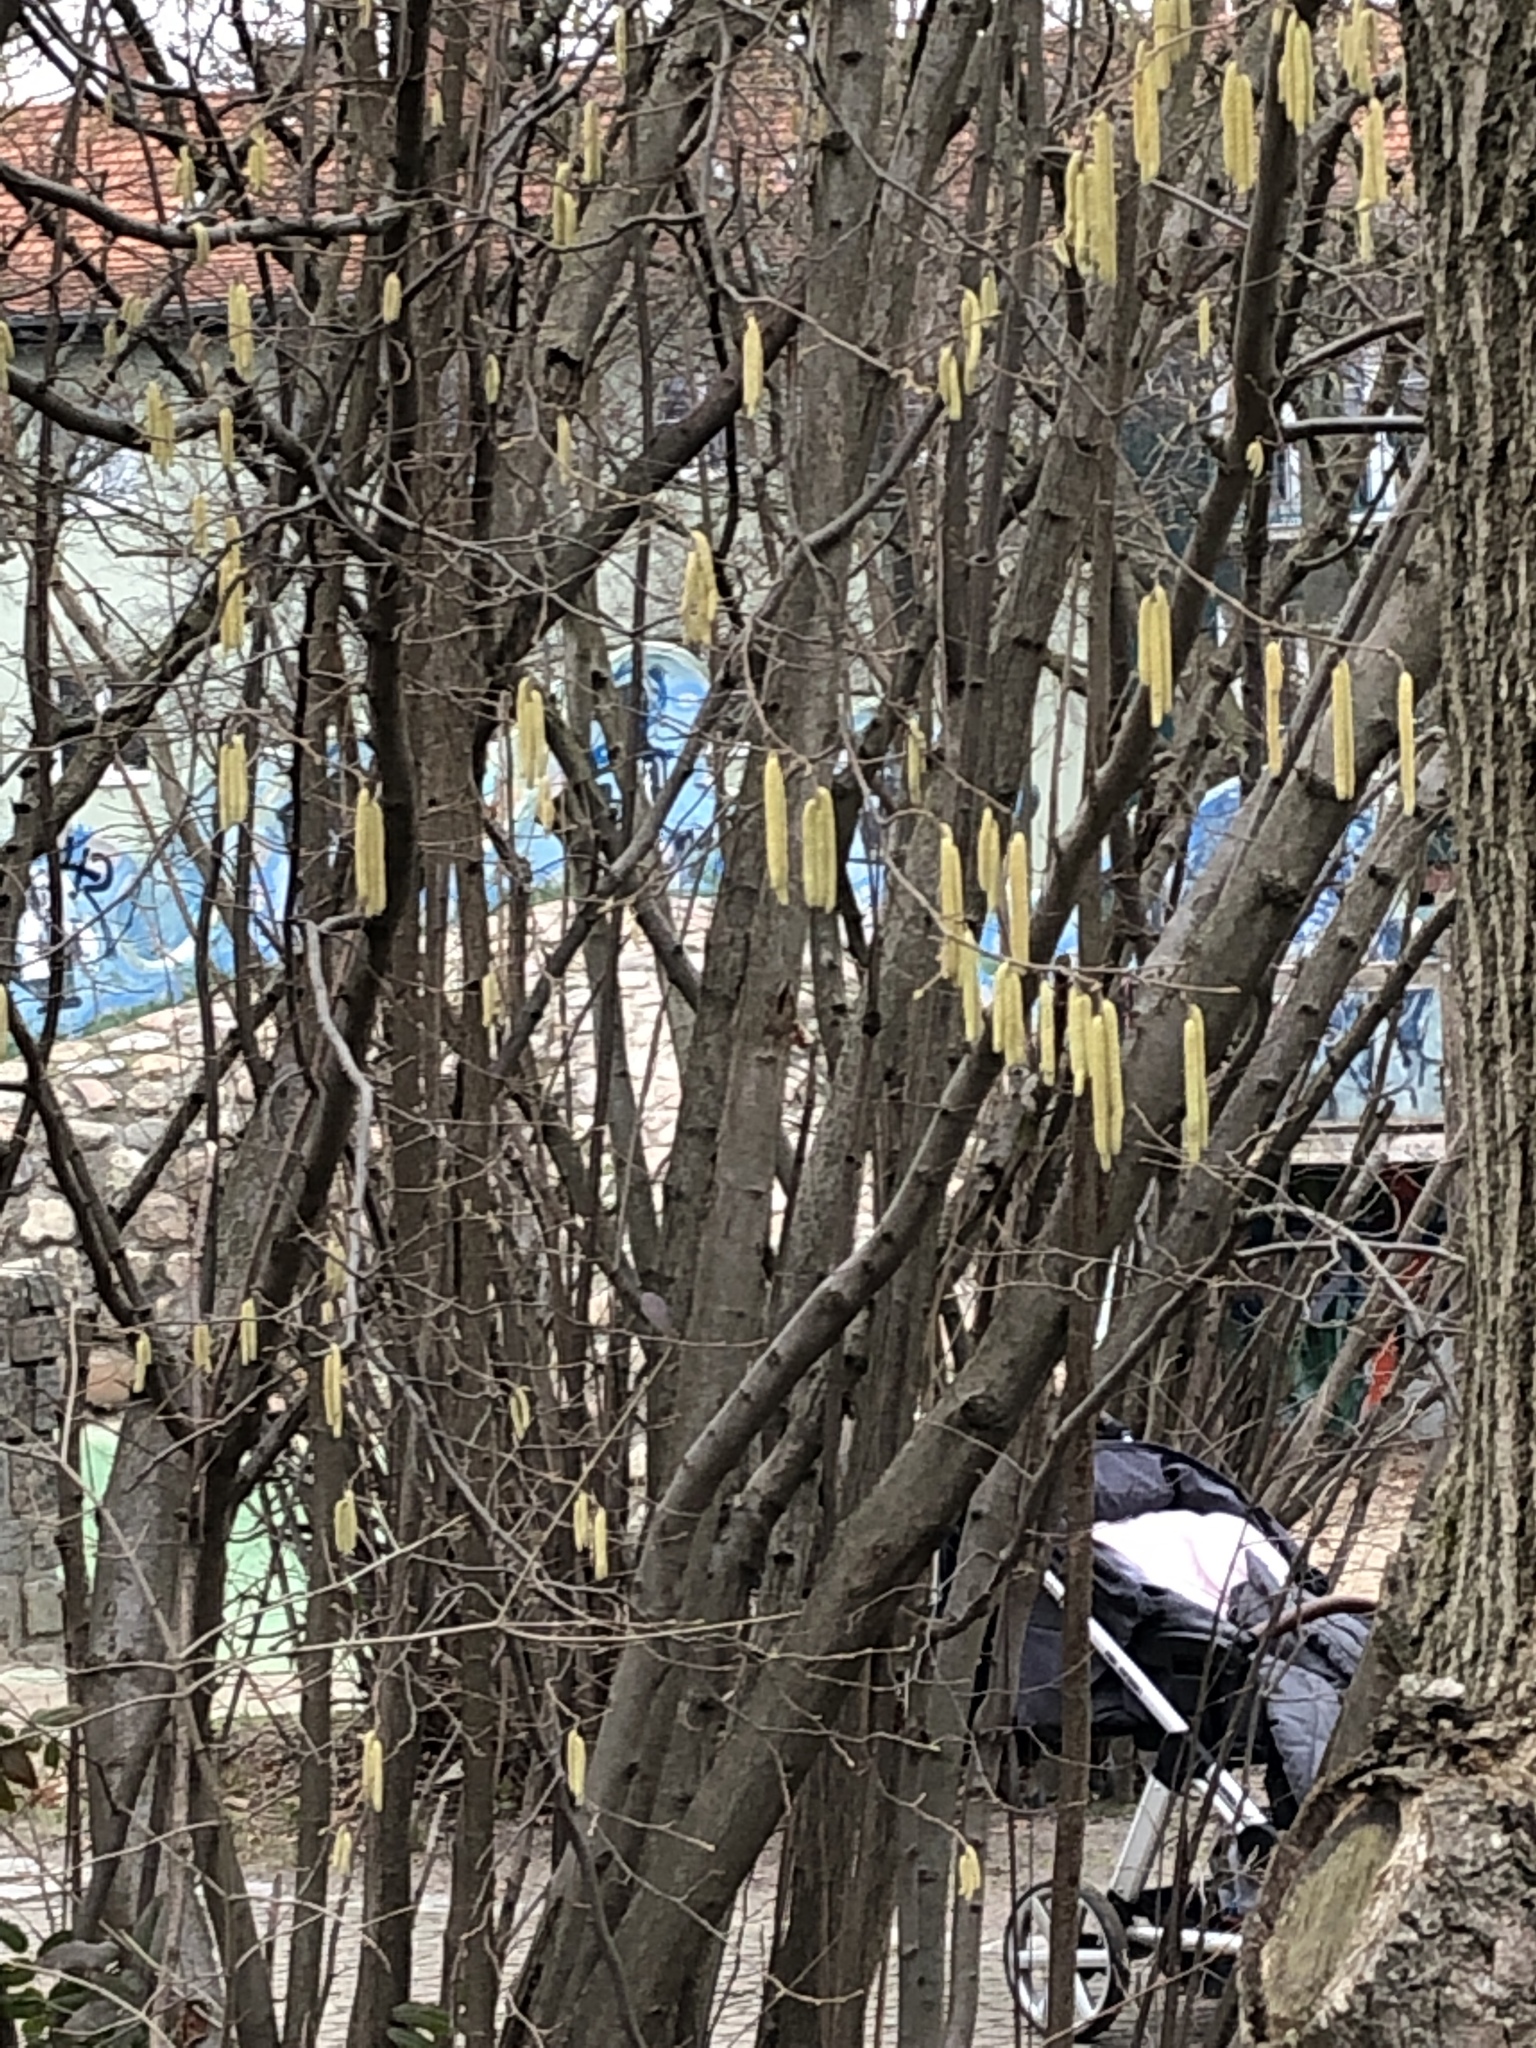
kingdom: Plantae
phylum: Tracheophyta
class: Magnoliopsida
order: Fagales
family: Betulaceae
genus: Corylus
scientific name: Corylus avellana
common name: European hazel
